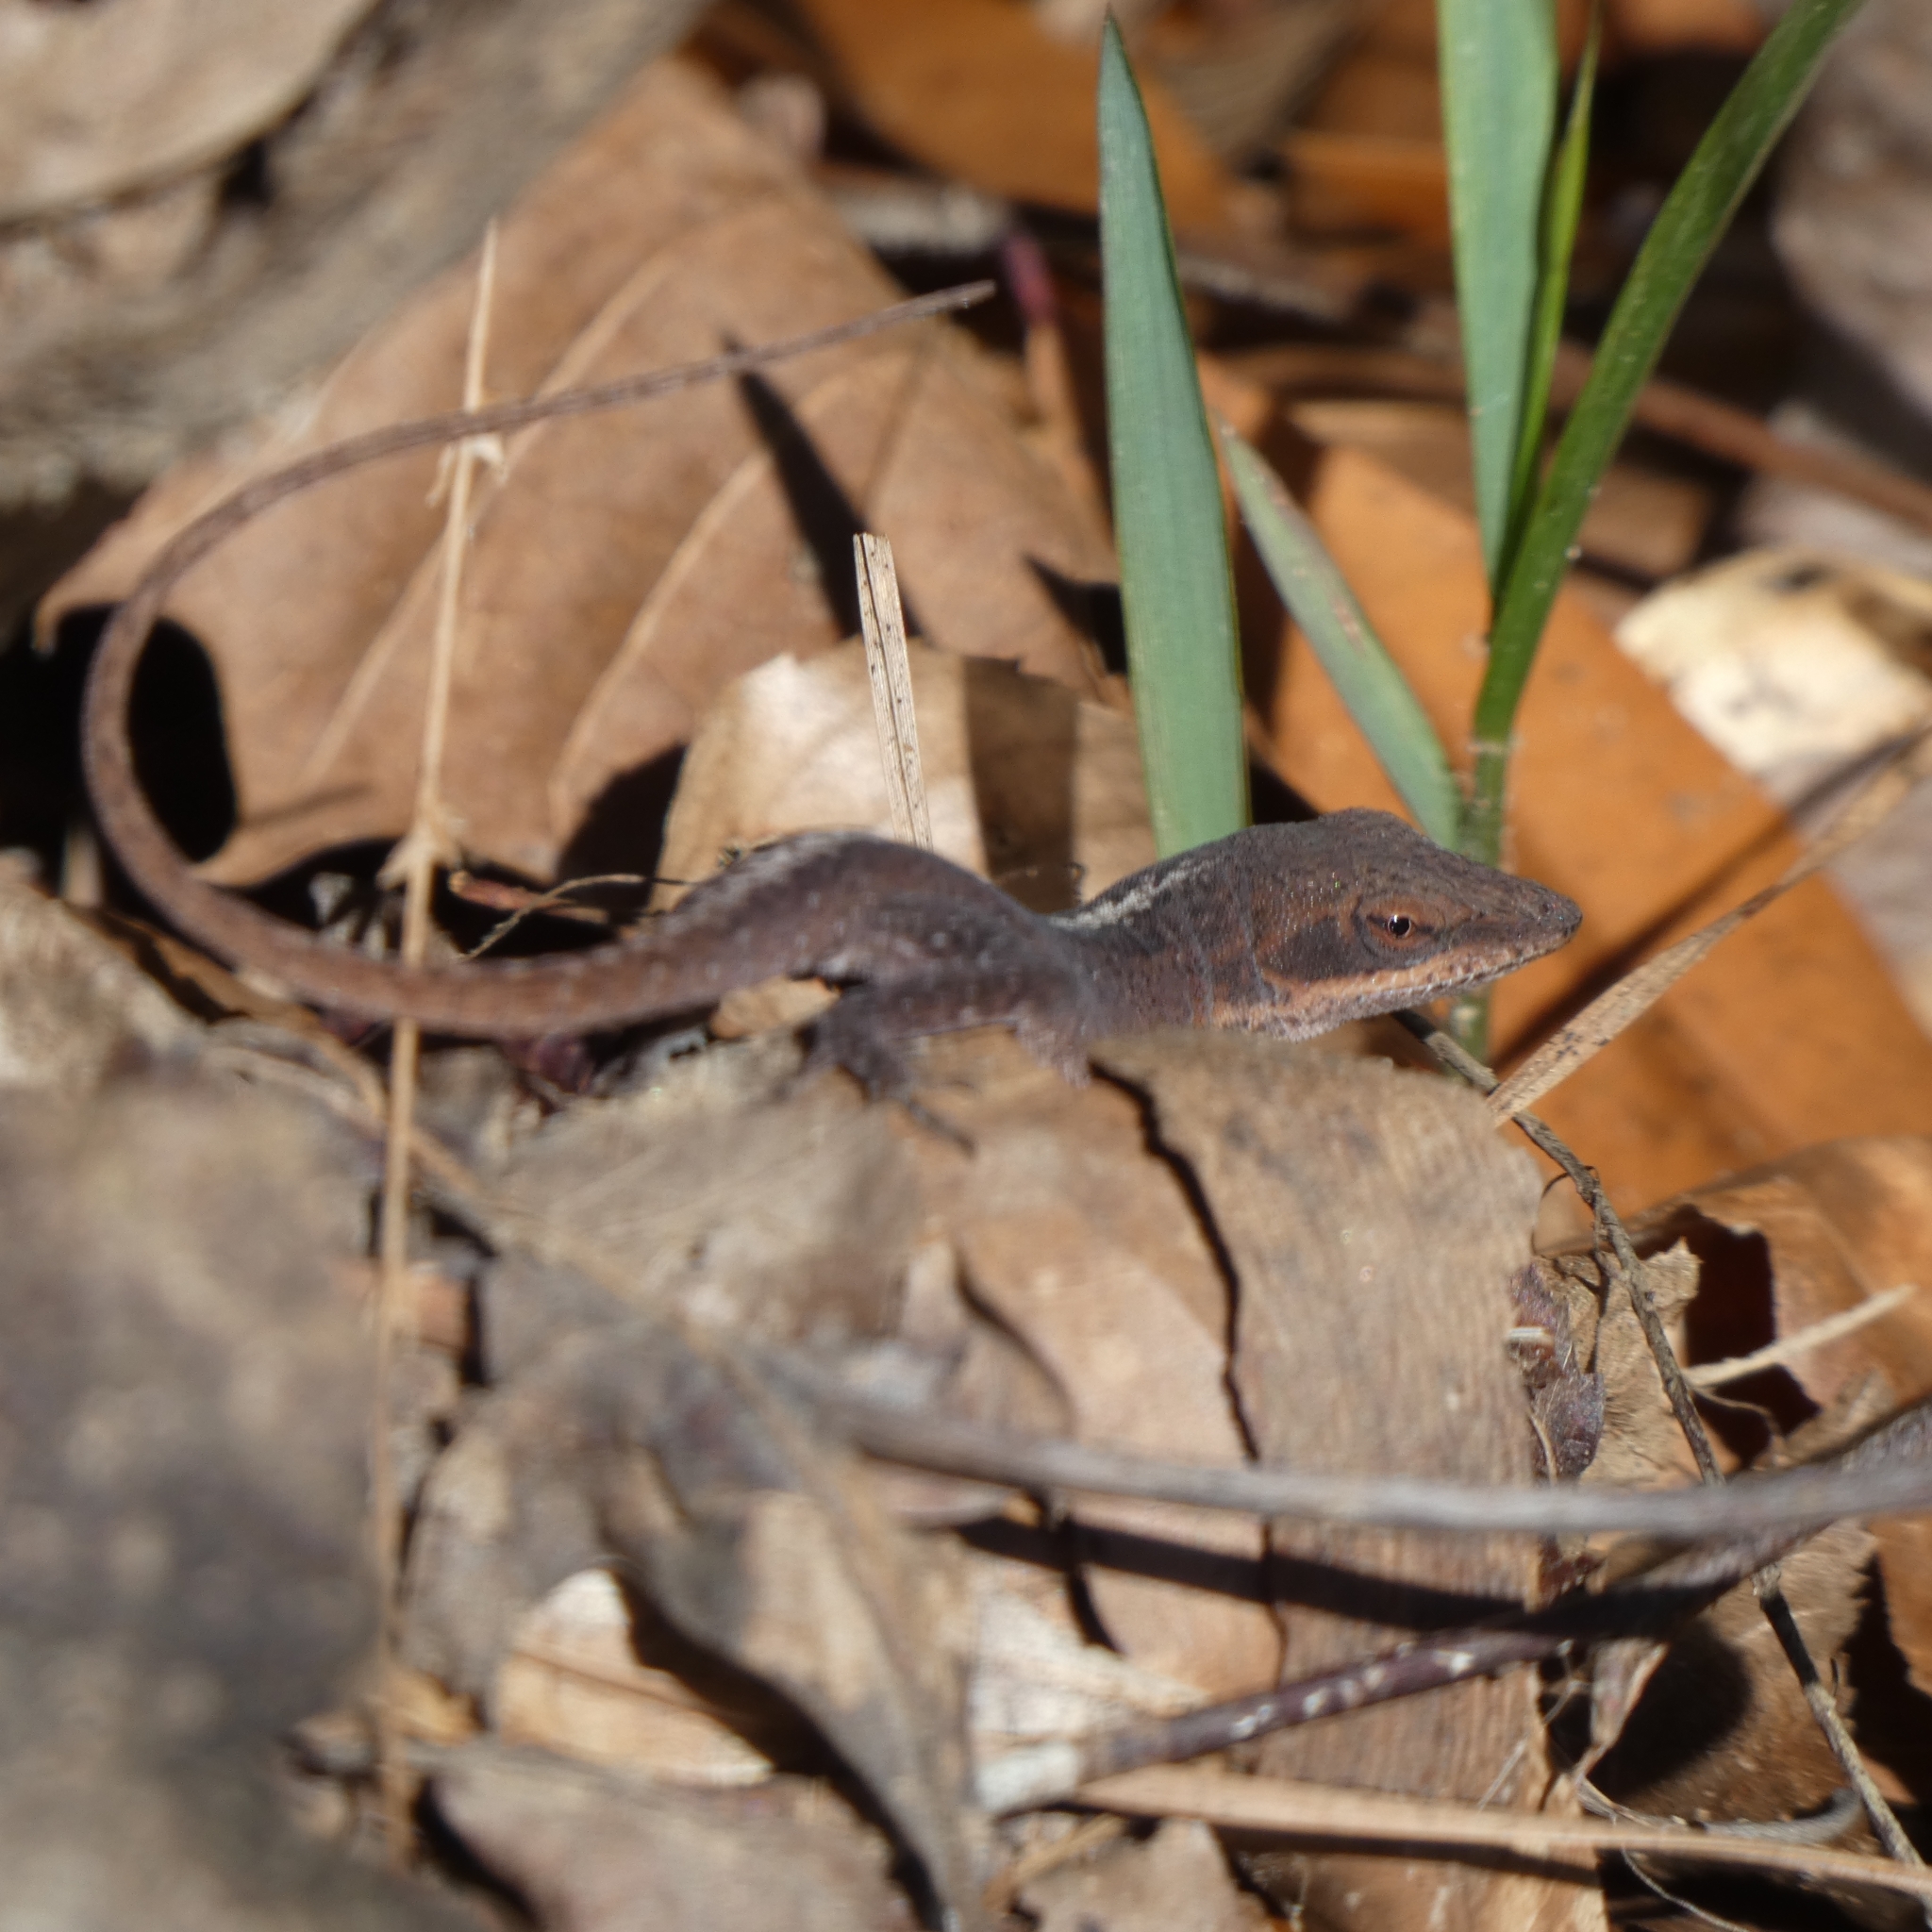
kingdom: Animalia
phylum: Chordata
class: Squamata
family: Dactyloidae
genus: Anolis
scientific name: Anolis carolinensis
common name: Green anole
